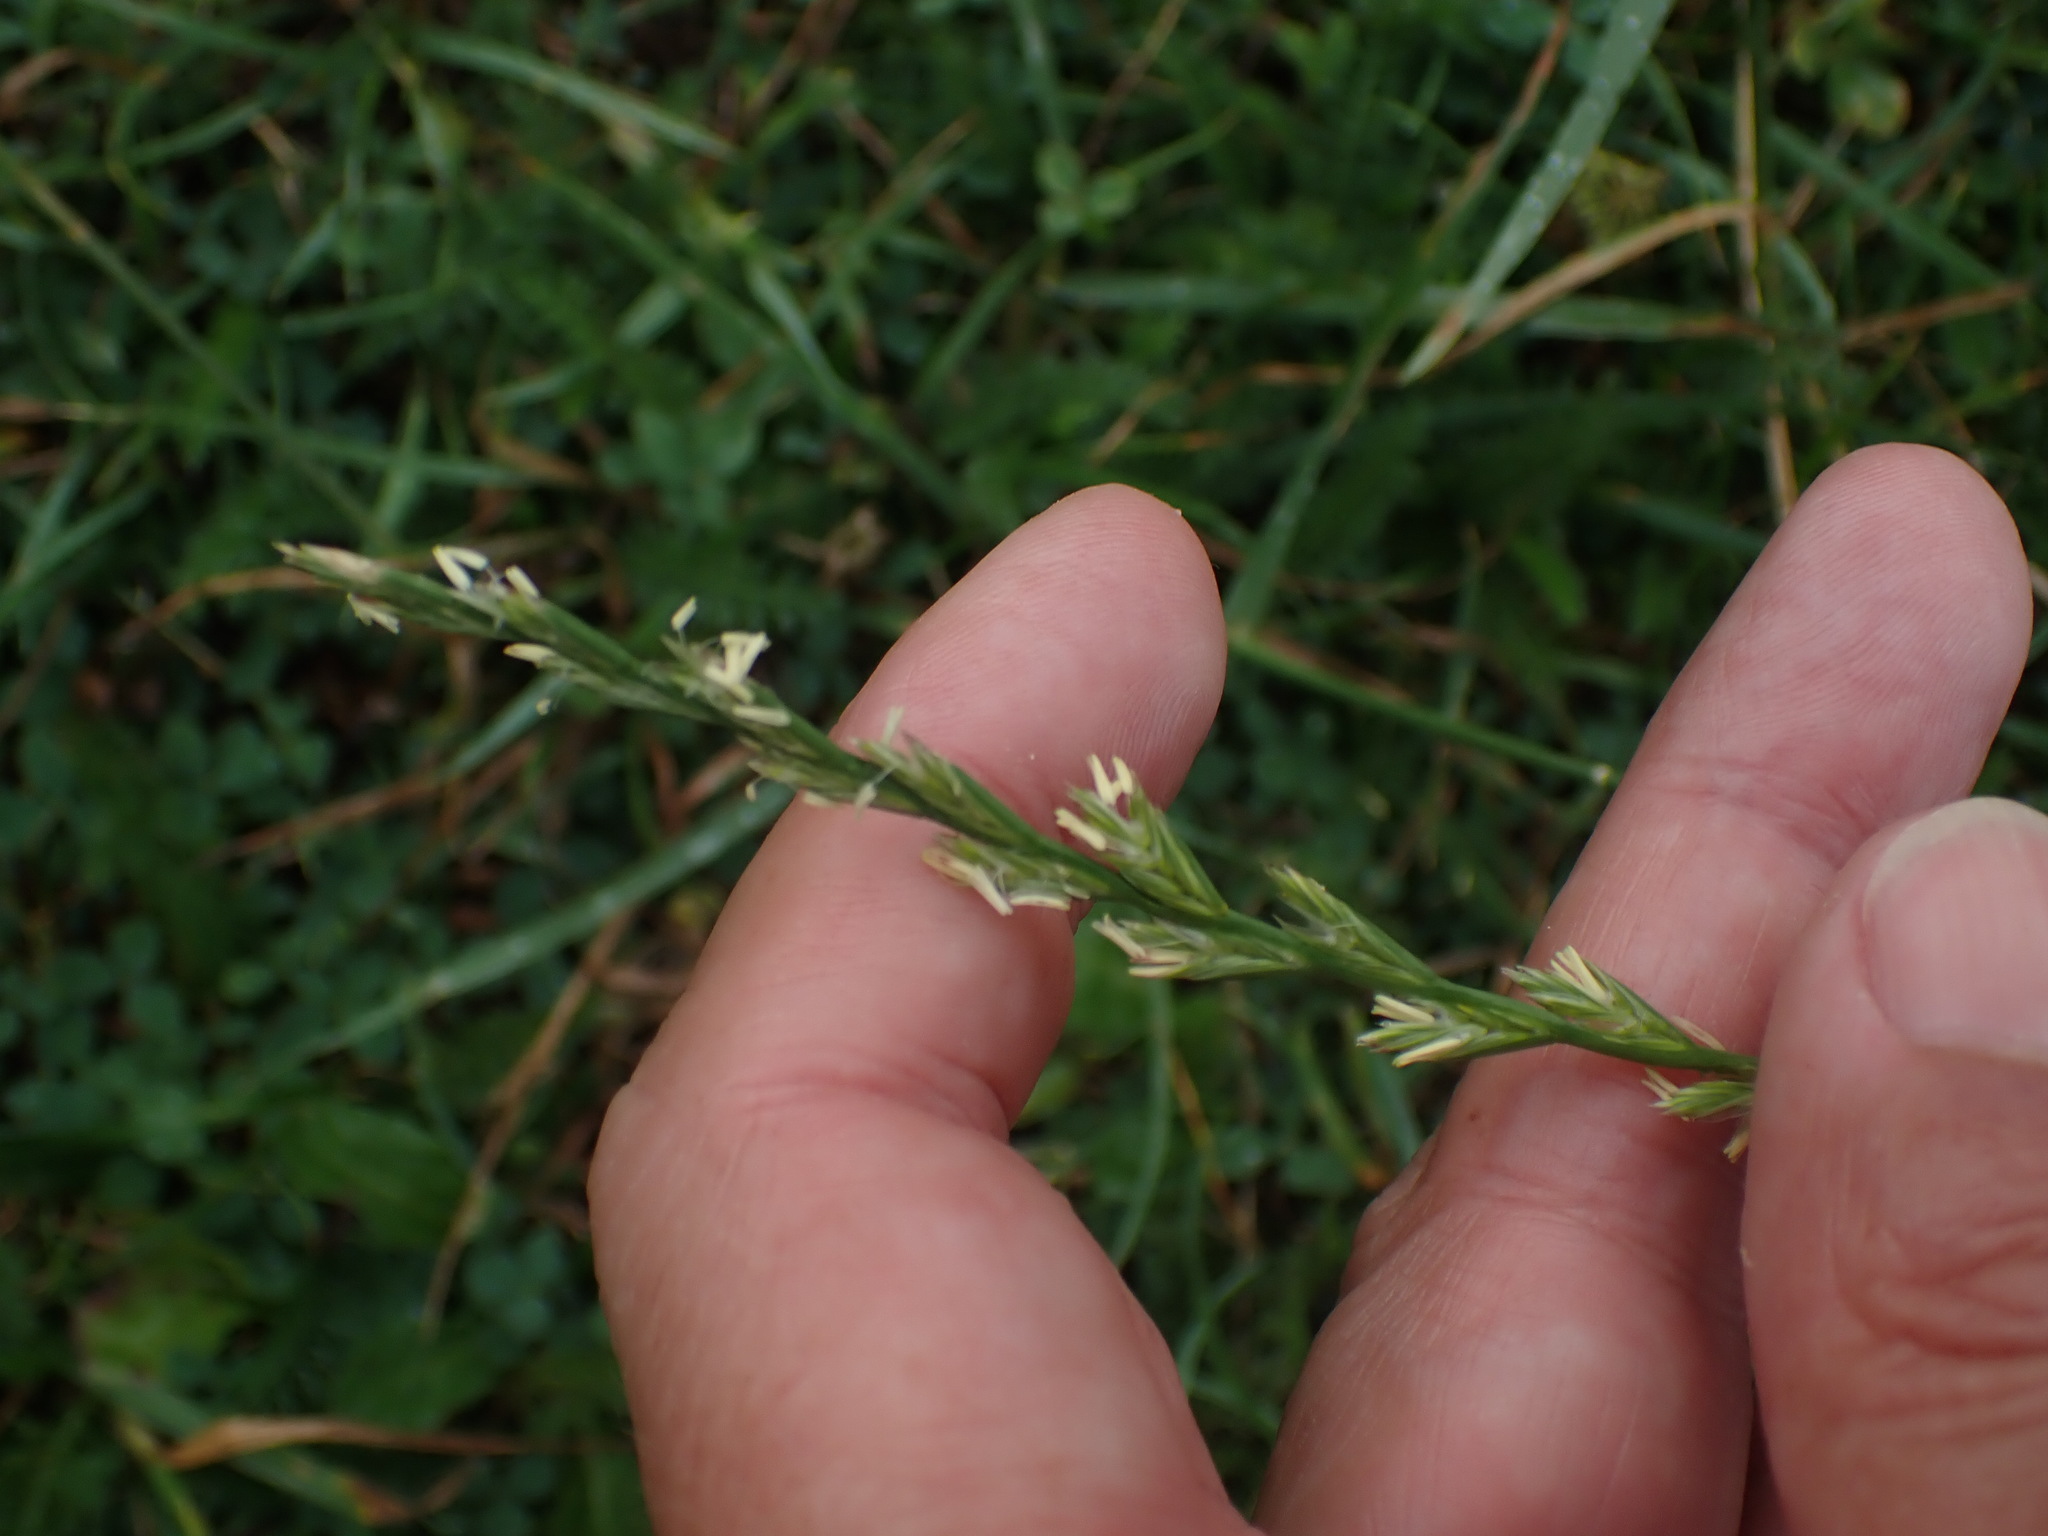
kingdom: Plantae
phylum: Tracheophyta
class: Liliopsida
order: Poales
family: Poaceae
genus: Lolium
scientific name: Lolium perenne
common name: Perennial ryegrass
